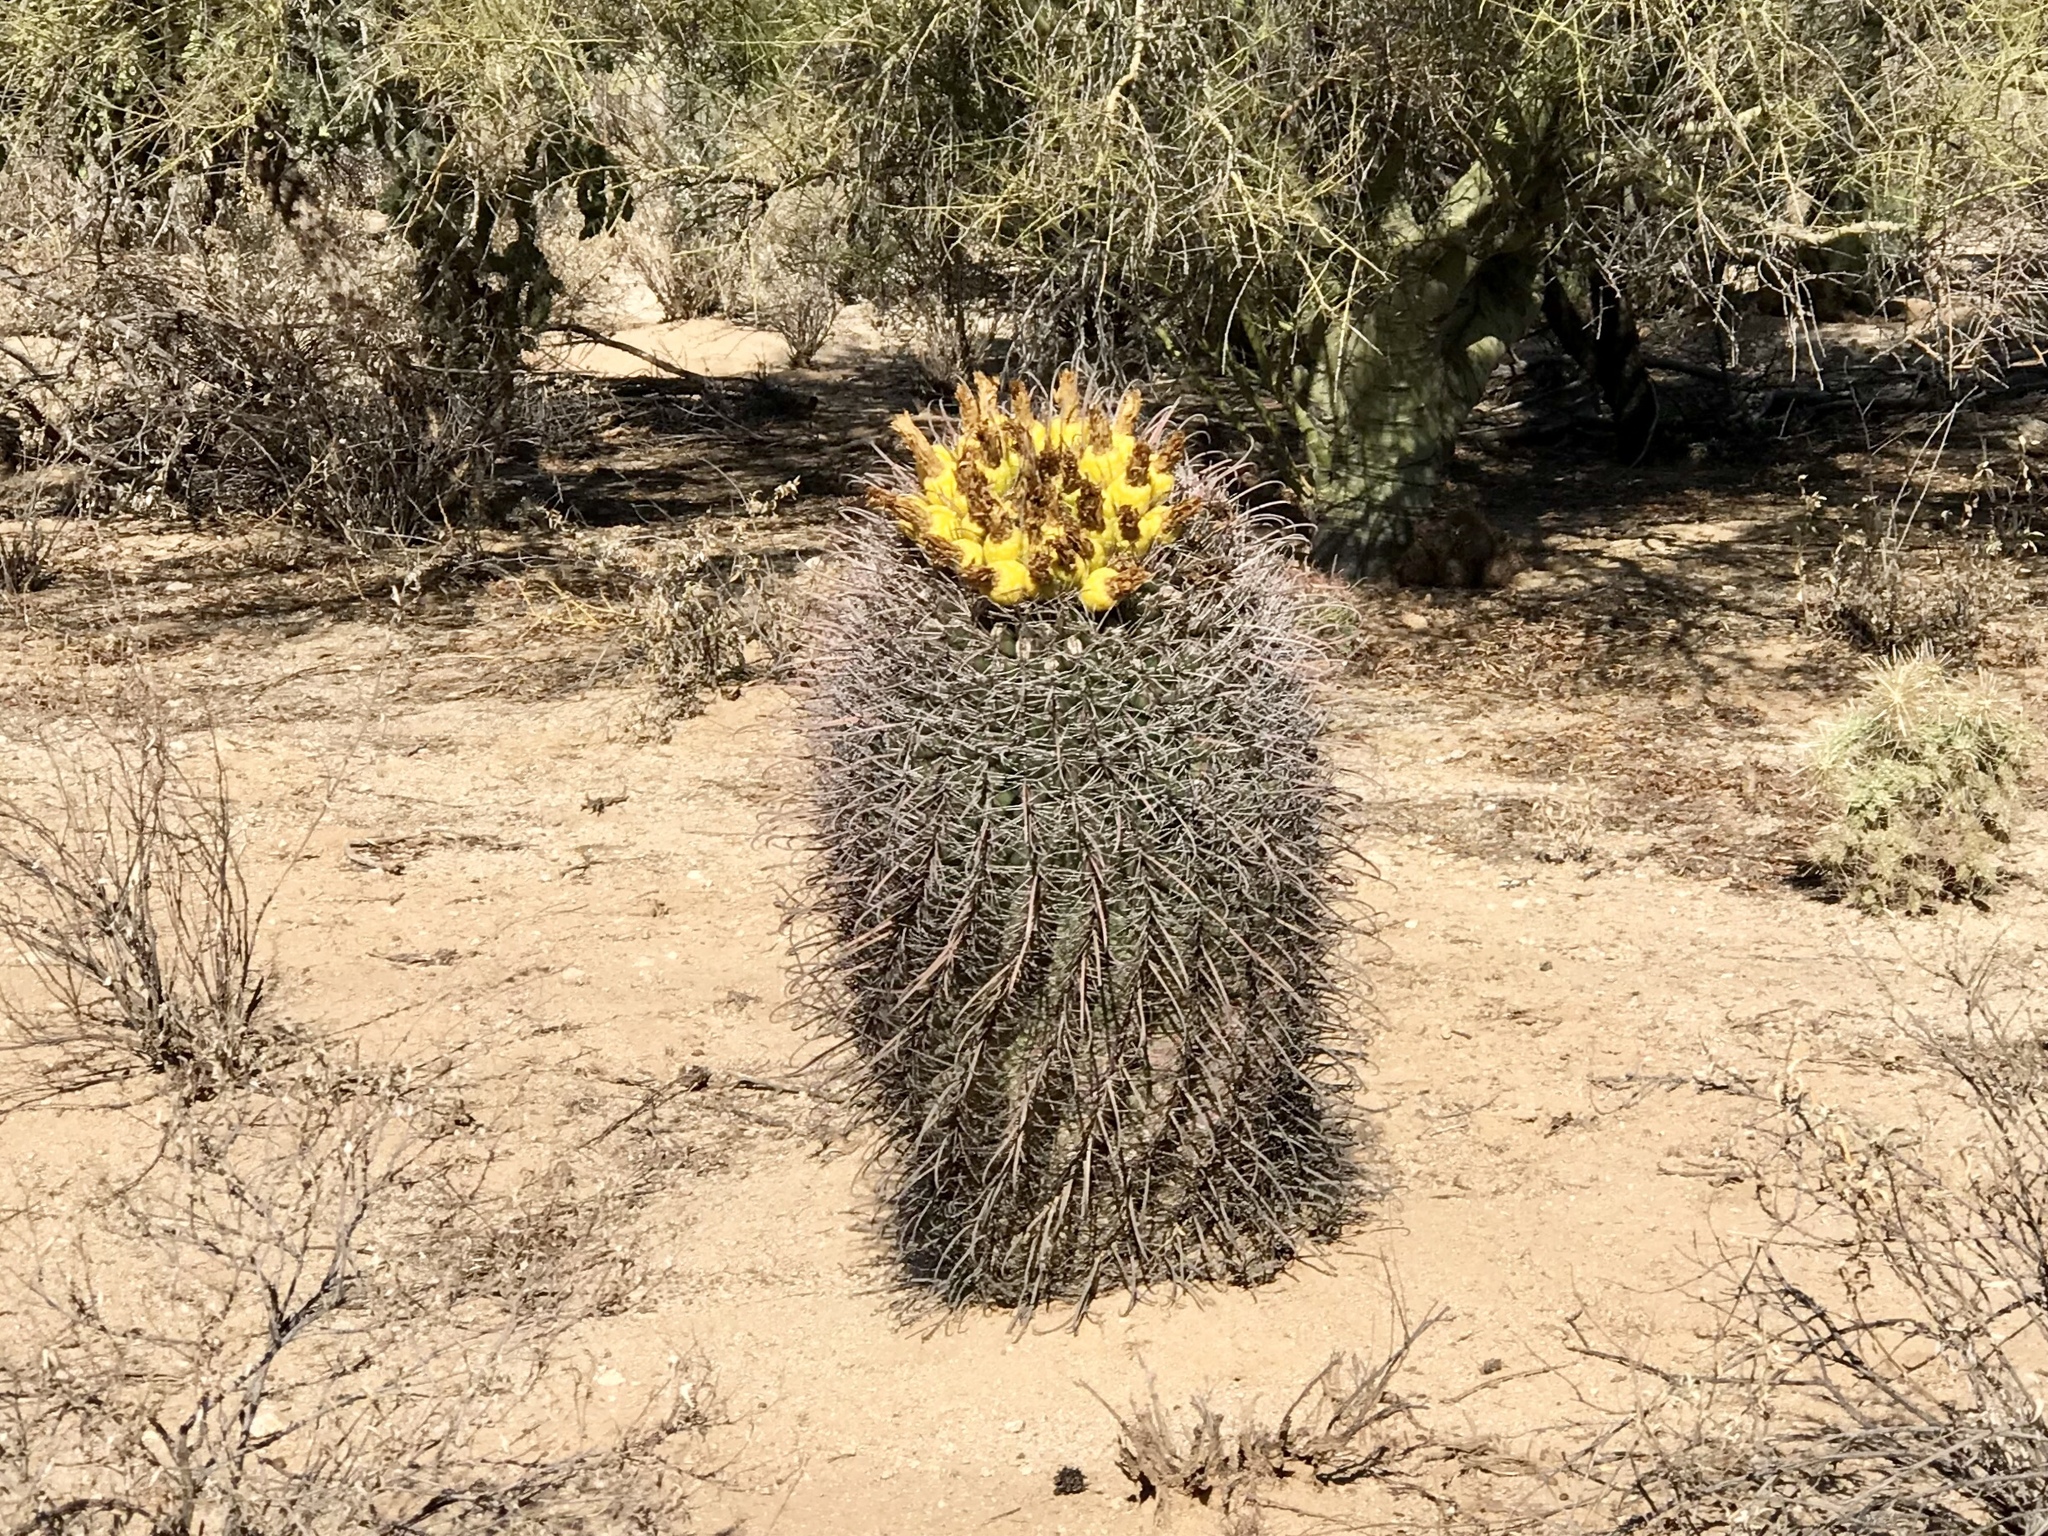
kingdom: Plantae
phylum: Tracheophyta
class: Magnoliopsida
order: Caryophyllales
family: Cactaceae
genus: Ferocactus
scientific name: Ferocactus wislizeni
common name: Candy barrel cactus
